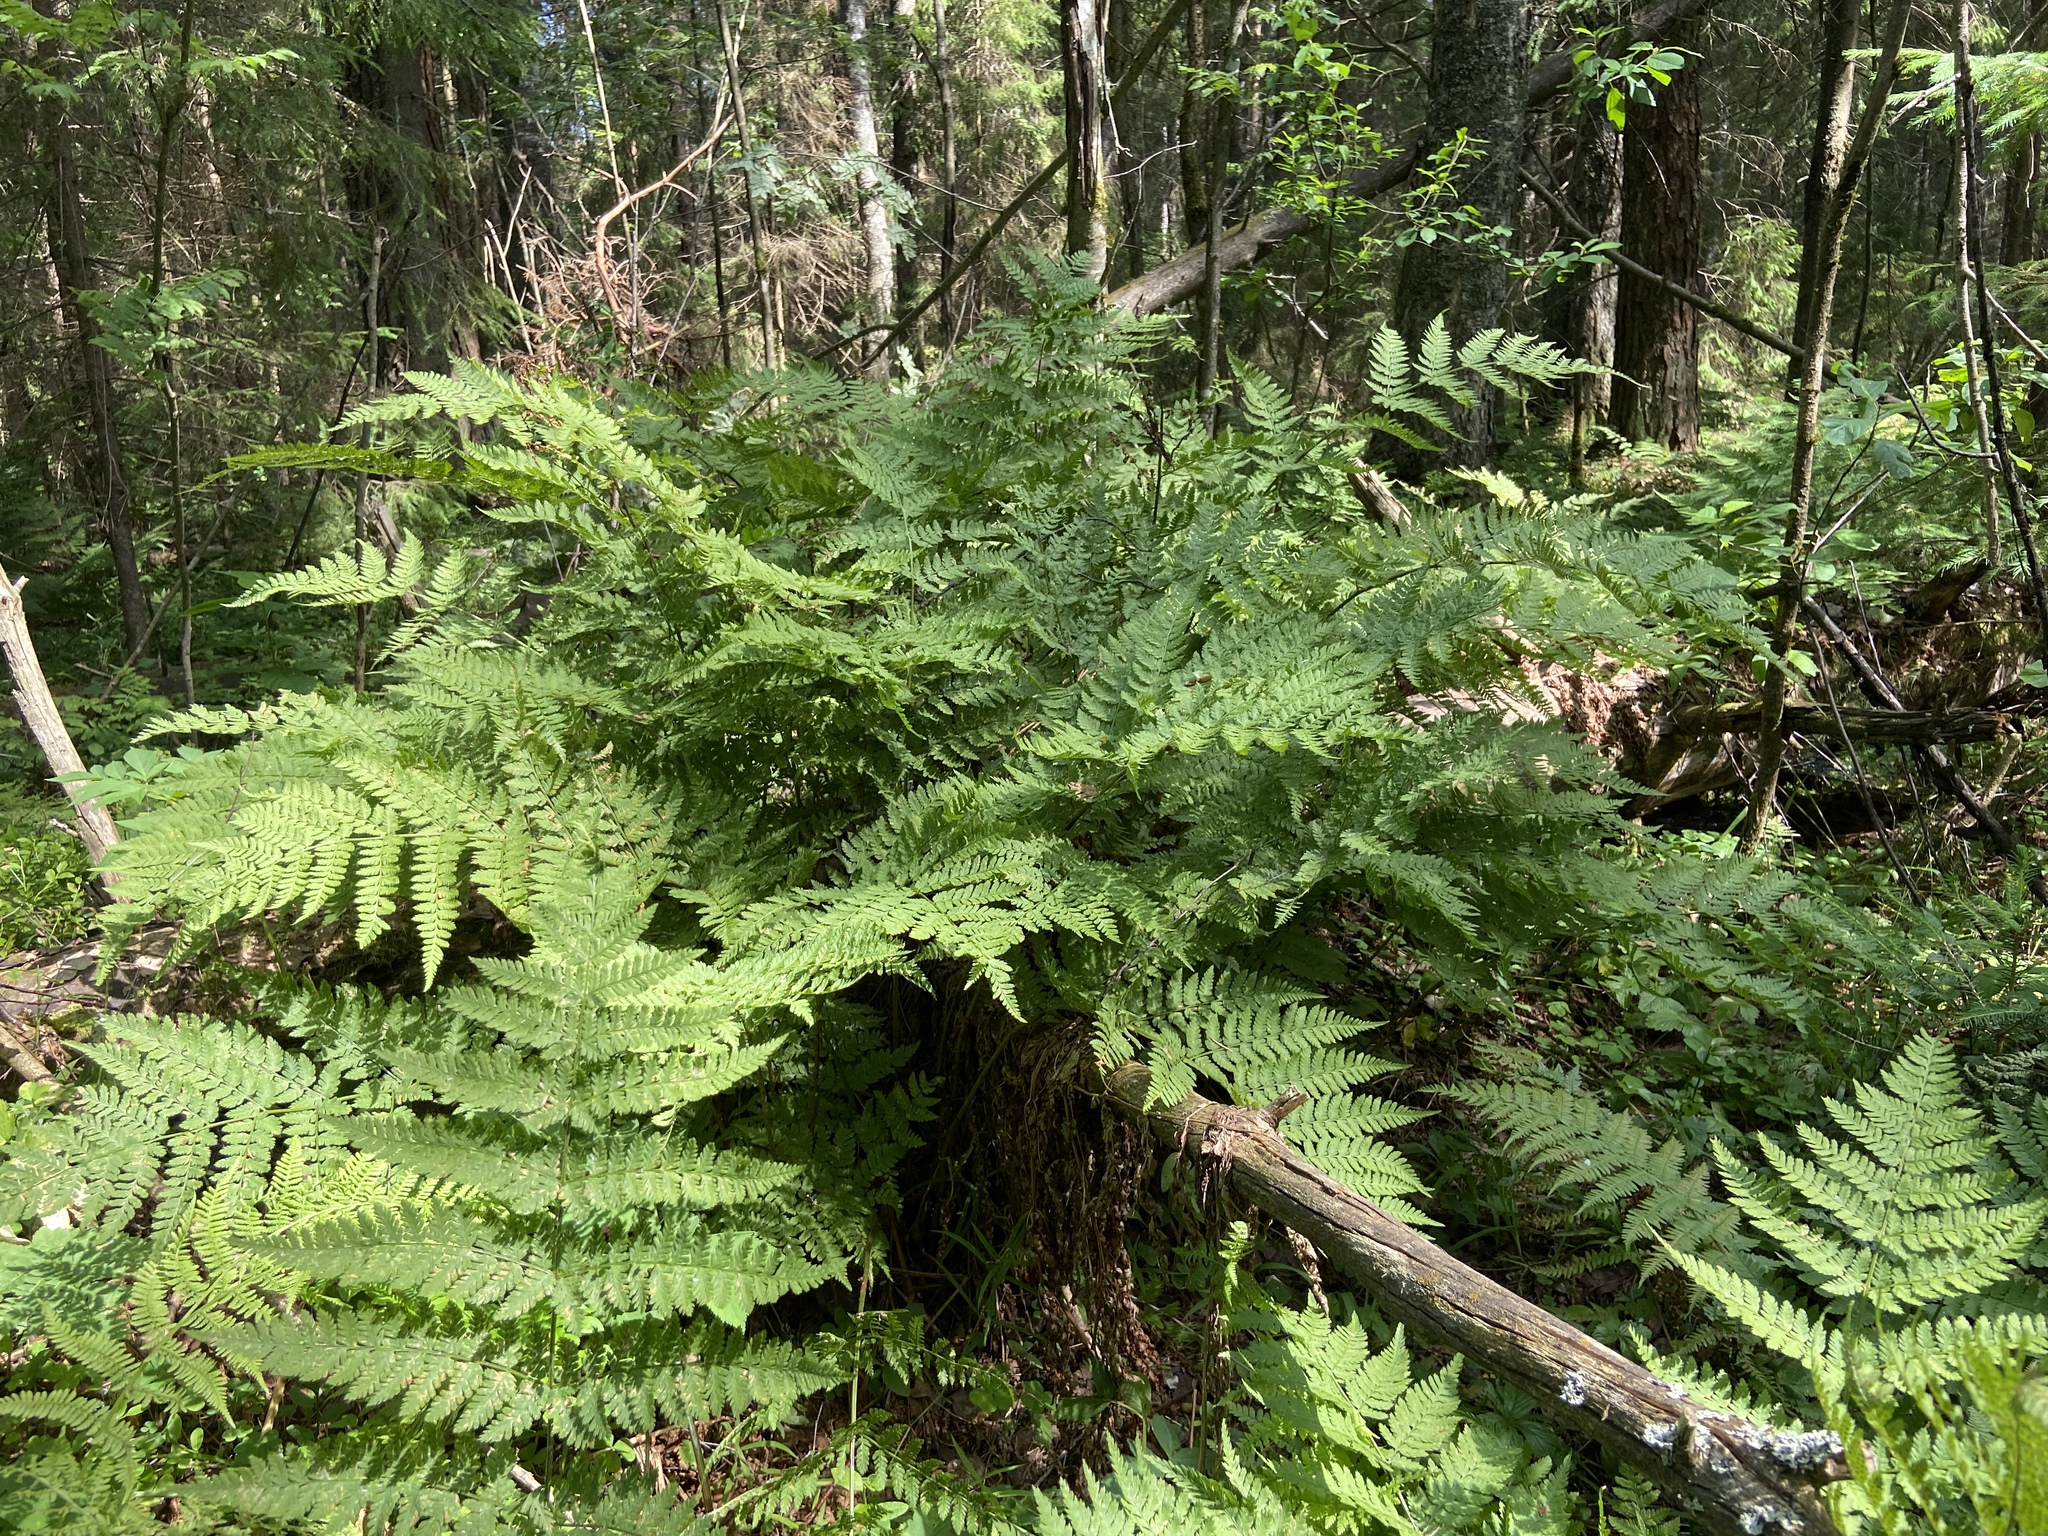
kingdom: Plantae
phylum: Tracheophyta
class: Polypodiopsida
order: Polypodiales
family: Dryopteridaceae
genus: Dryopteris
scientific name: Dryopteris expansa
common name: Northern buckler fern
